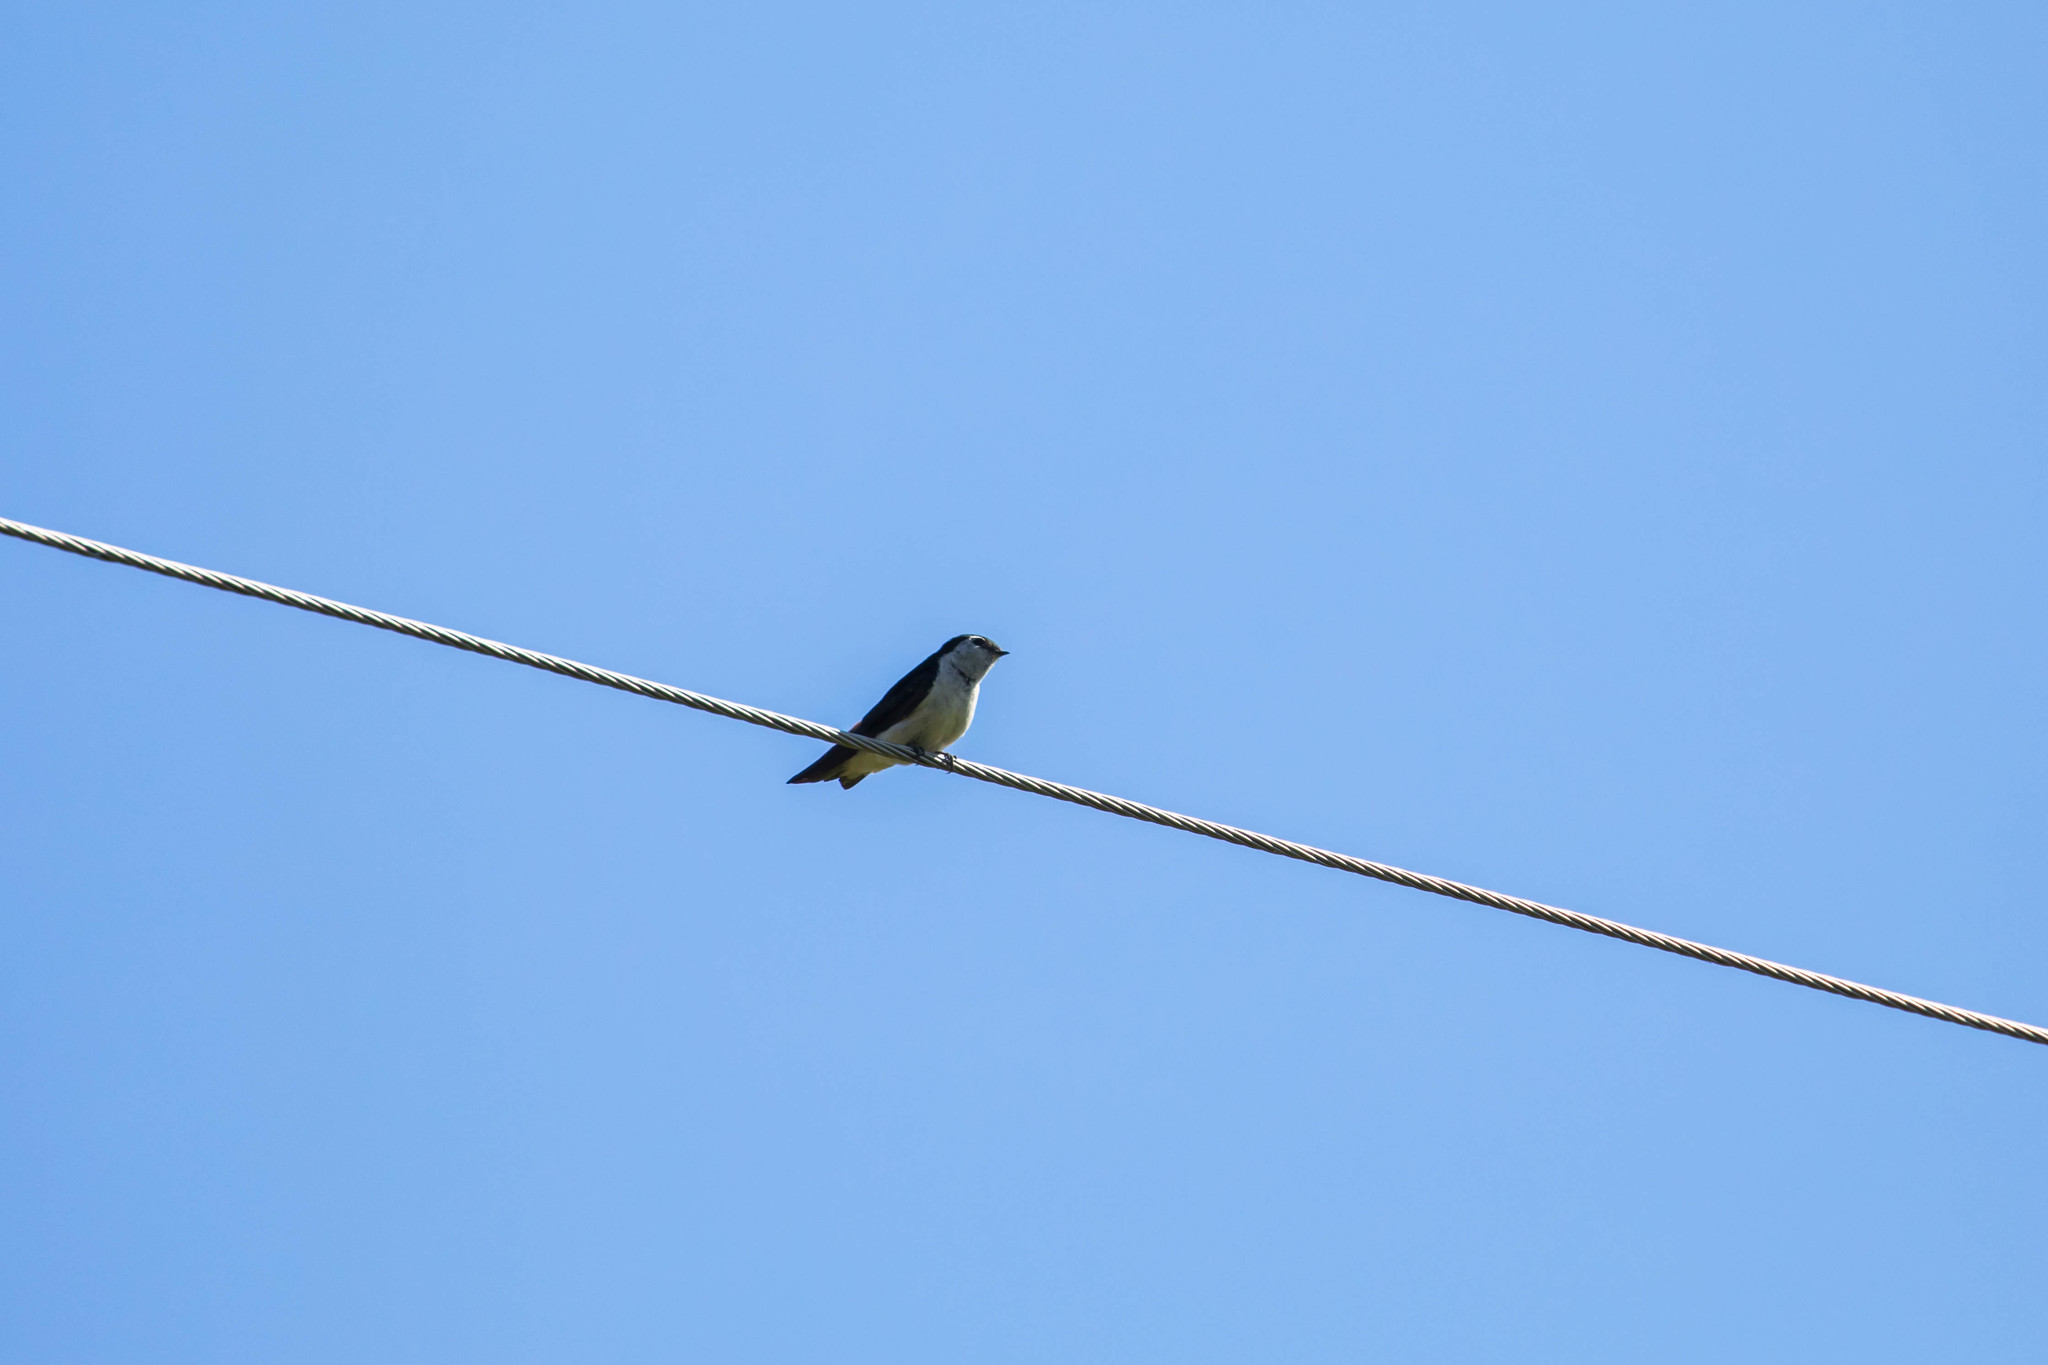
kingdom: Animalia
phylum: Chordata
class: Aves
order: Passeriformes
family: Hirundinidae
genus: Tachycineta
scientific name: Tachycineta thalassina
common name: Violet-green swallow
